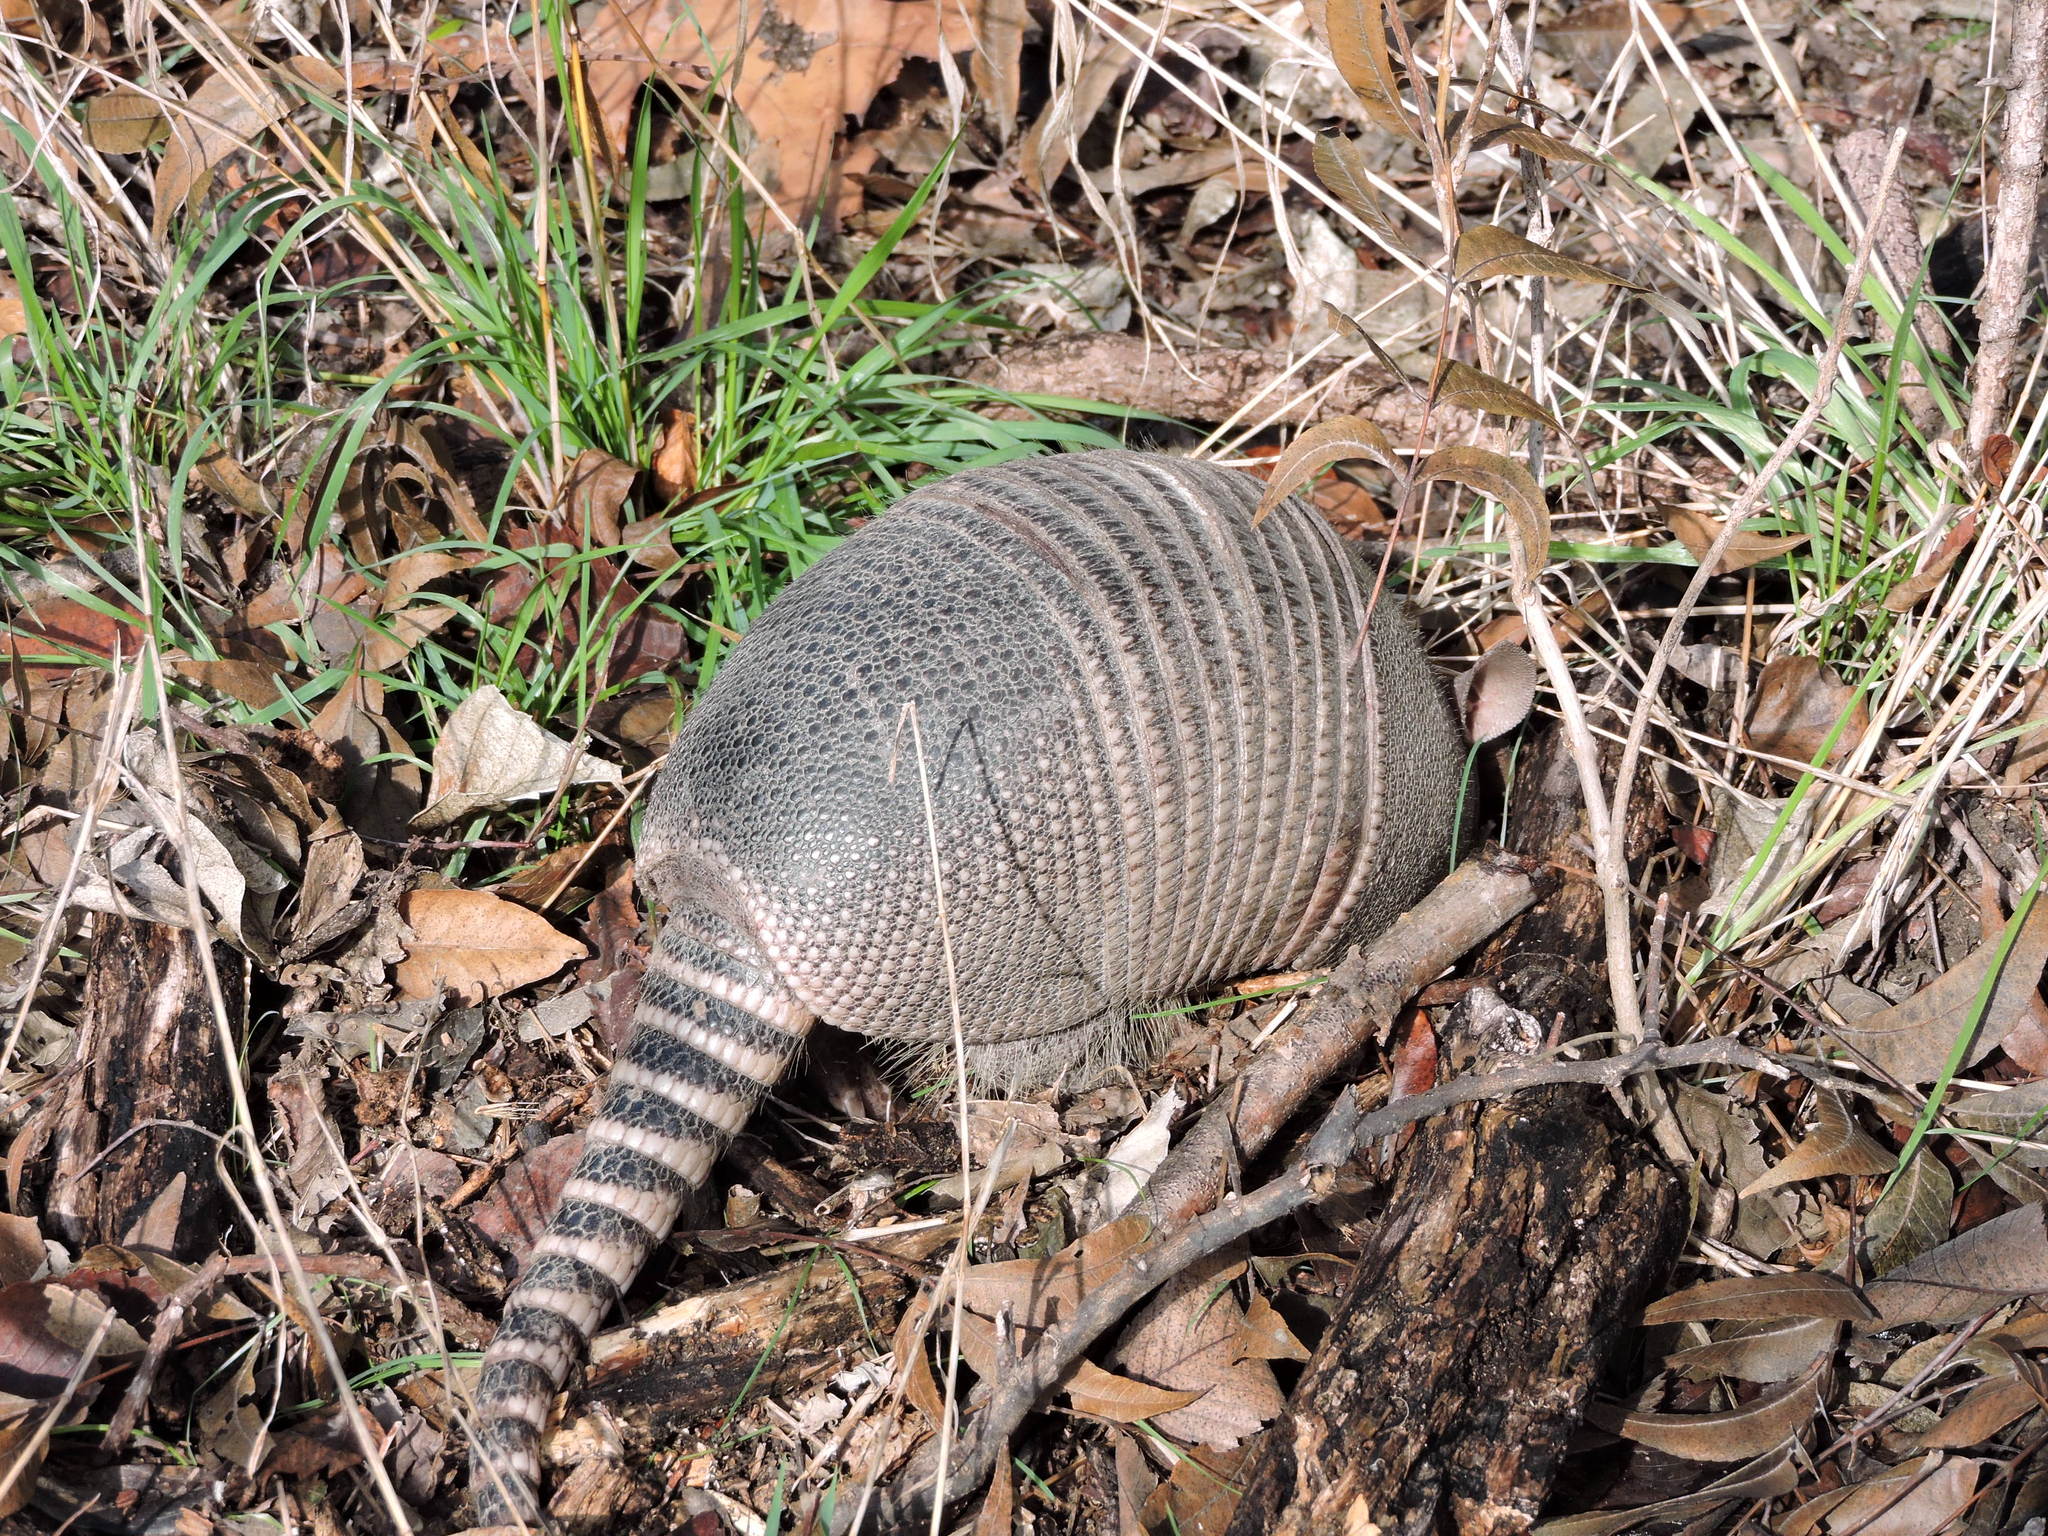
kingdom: Animalia
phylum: Chordata
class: Mammalia
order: Cingulata
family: Dasypodidae
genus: Dasypus
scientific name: Dasypus novemcinctus
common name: Nine-banded armadillo
